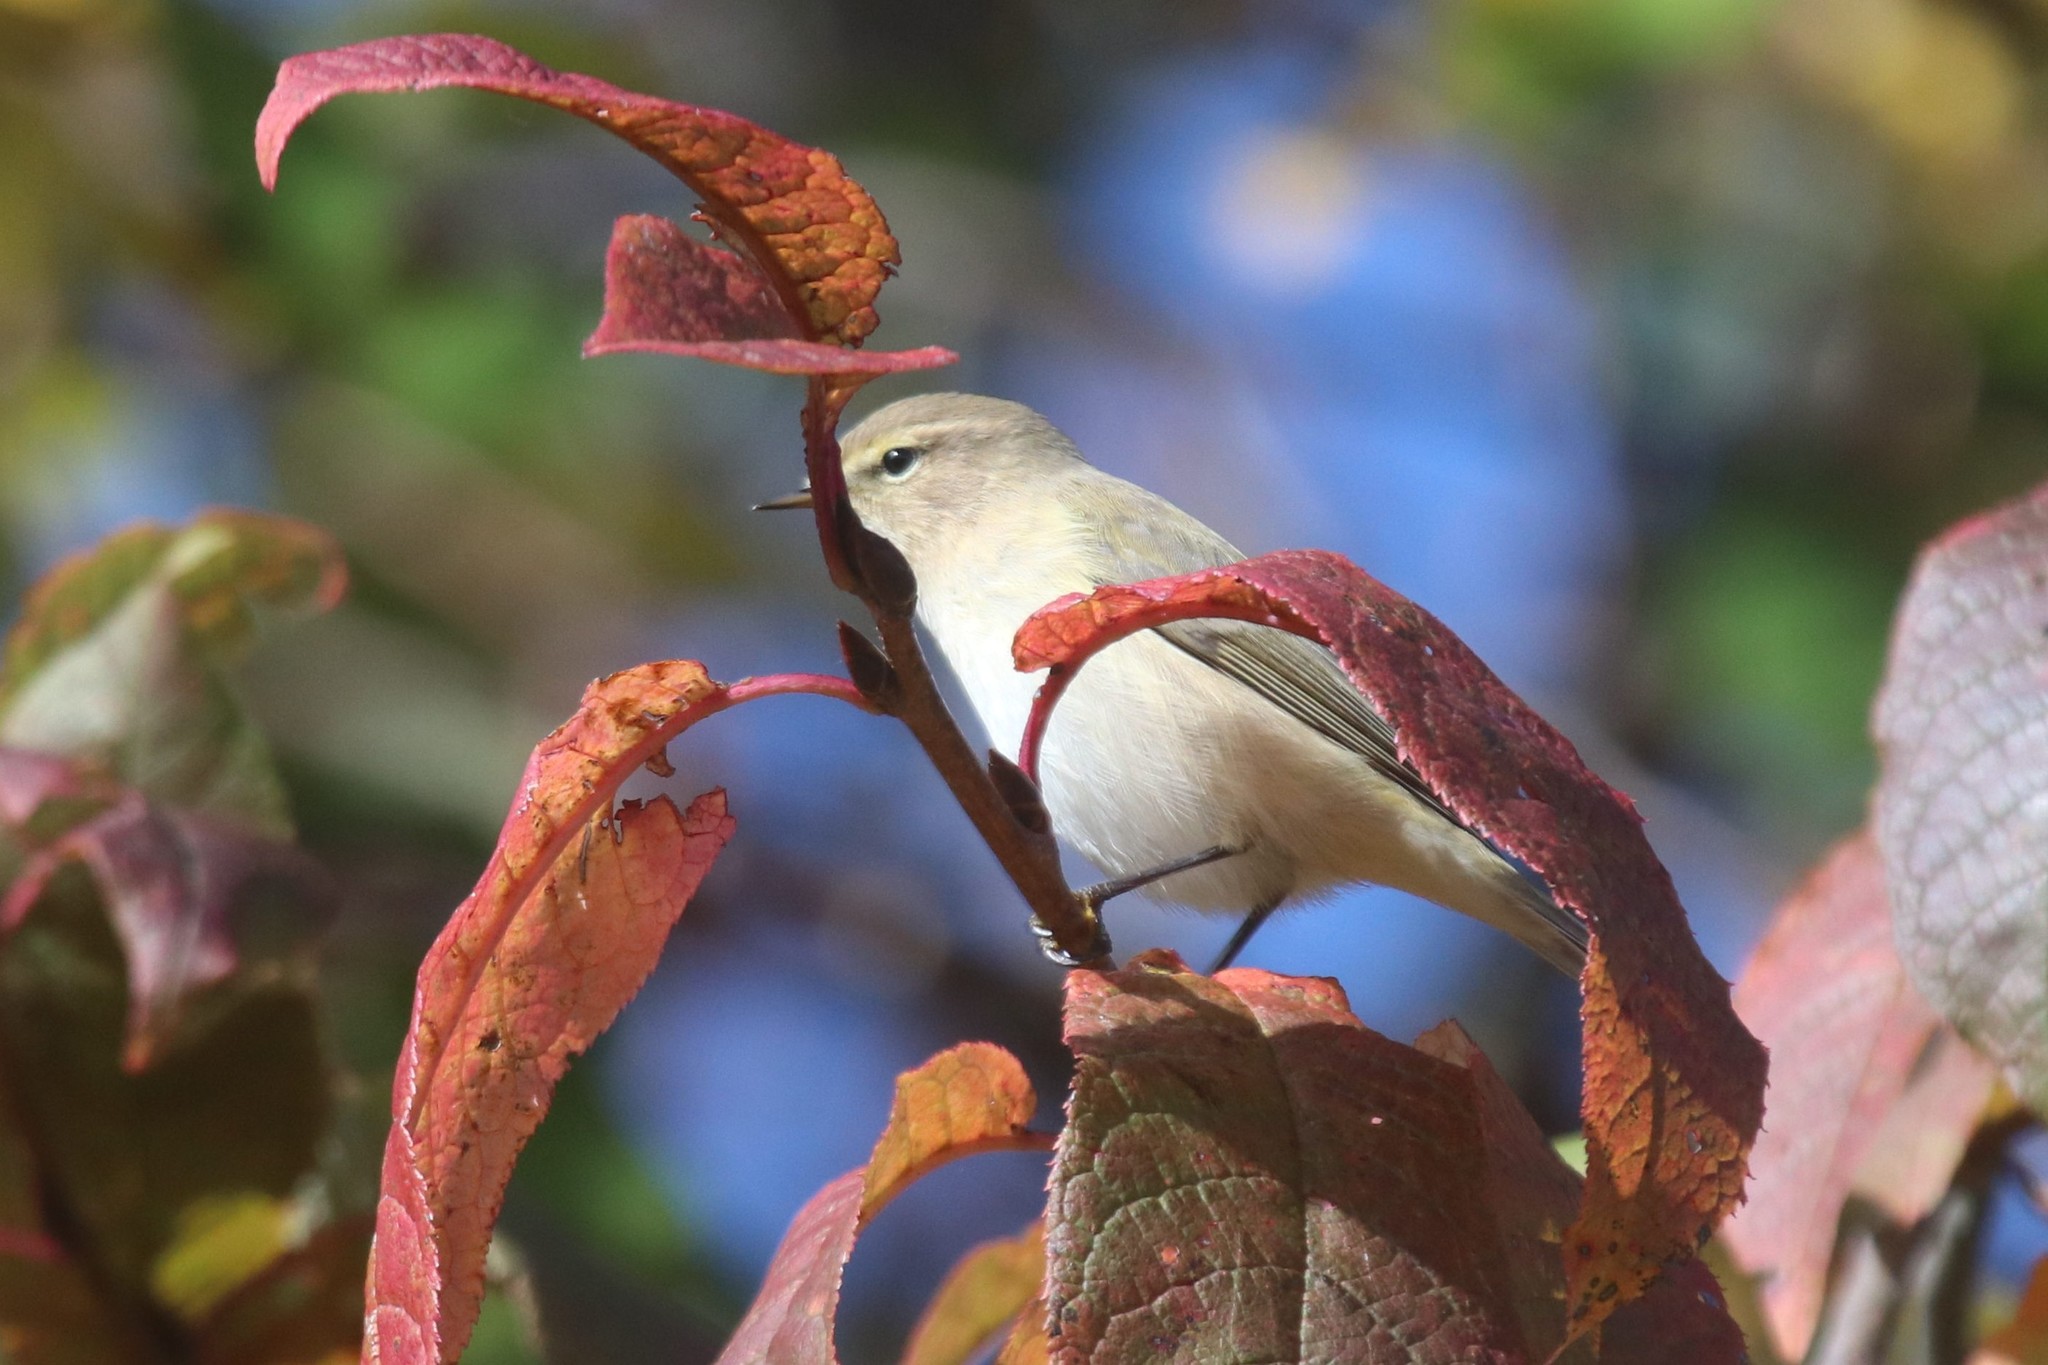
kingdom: Animalia
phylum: Chordata
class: Aves
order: Passeriformes
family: Phylloscopidae
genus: Phylloscopus
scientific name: Phylloscopus collybita
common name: Common chiffchaff
